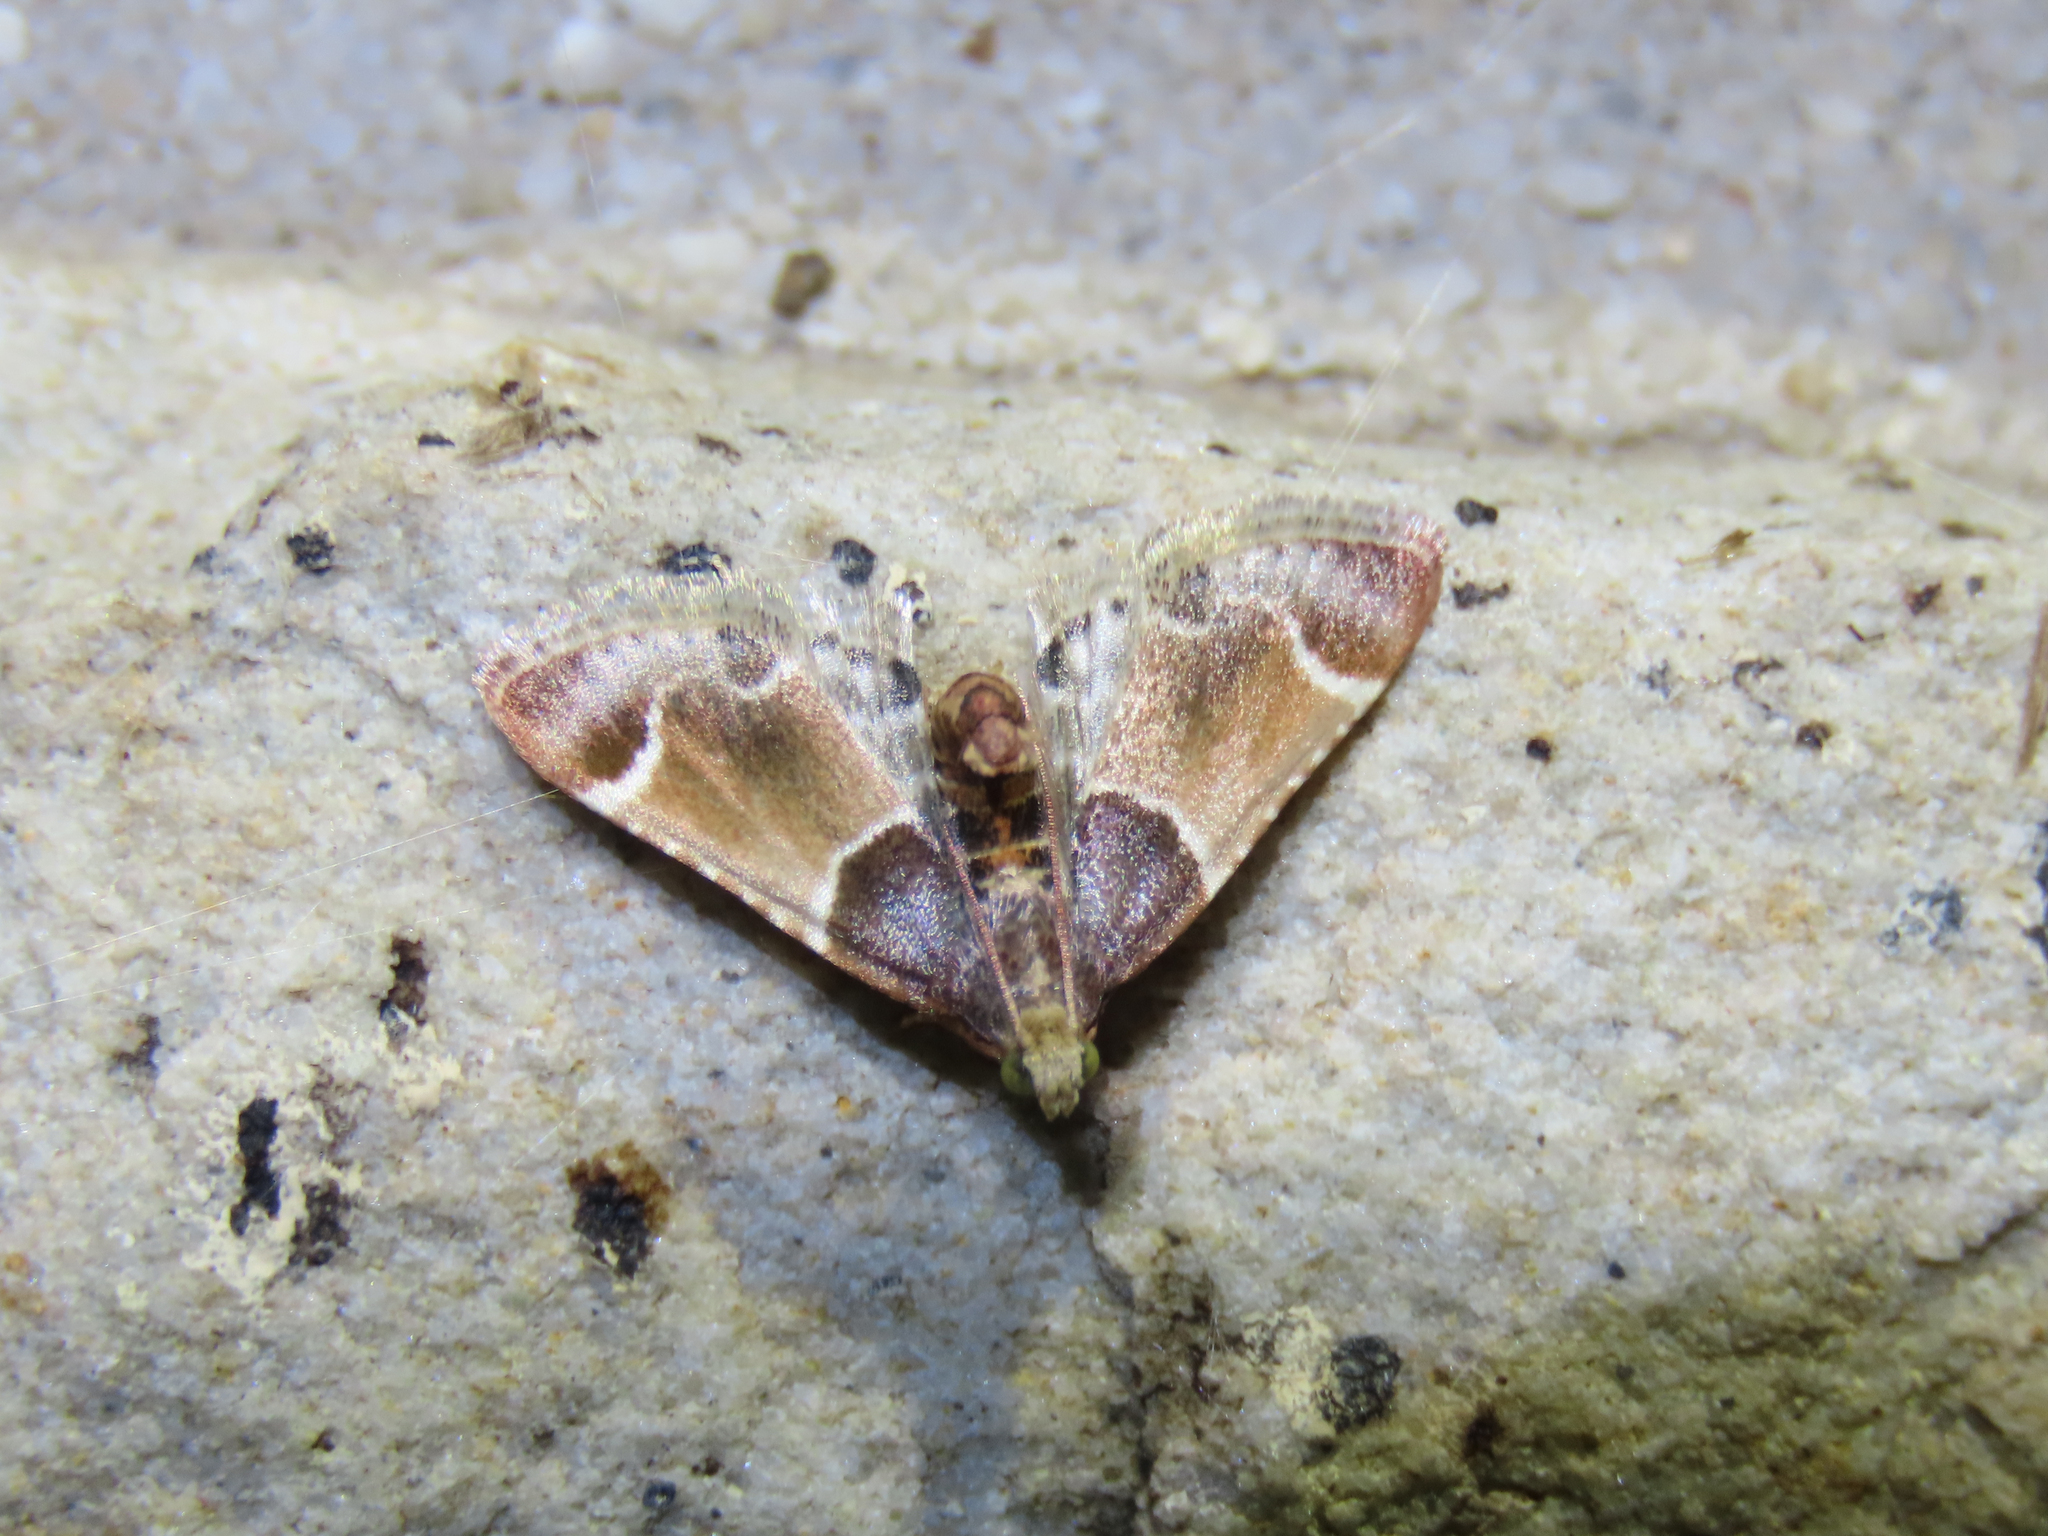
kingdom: Animalia
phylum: Arthropoda
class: Insecta
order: Lepidoptera
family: Pyralidae
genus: Pyralis
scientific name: Pyralis farinalis
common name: Meal moth
